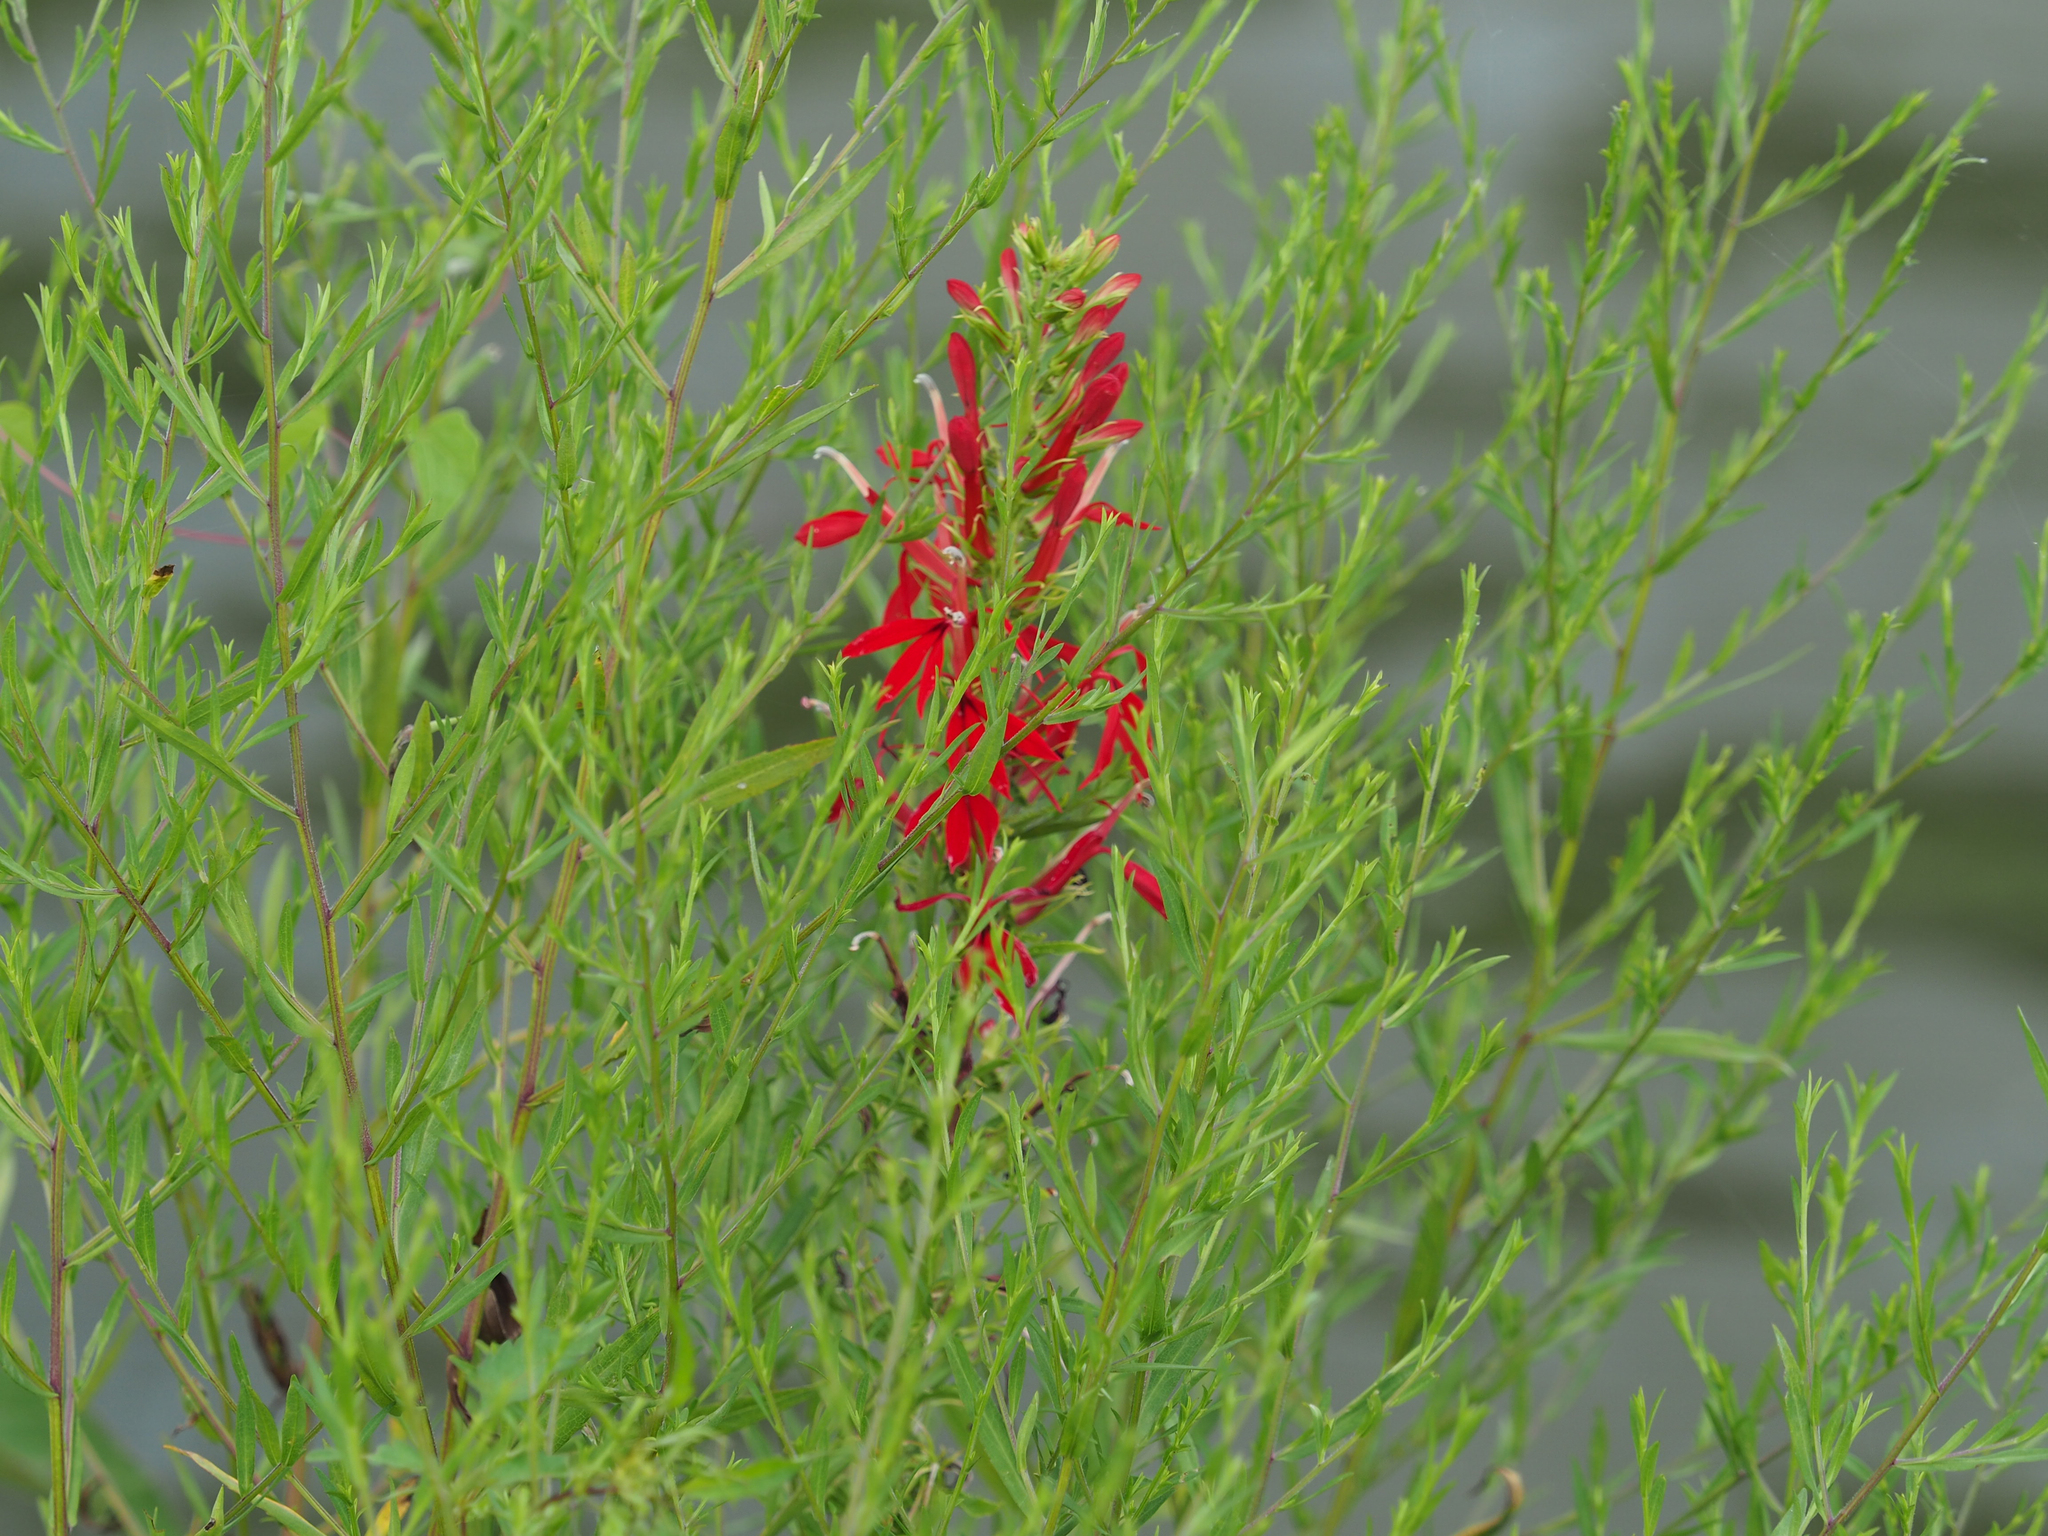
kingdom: Plantae
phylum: Tracheophyta
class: Magnoliopsida
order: Asterales
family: Campanulaceae
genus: Lobelia
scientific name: Lobelia cardinalis
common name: Cardinal flower
